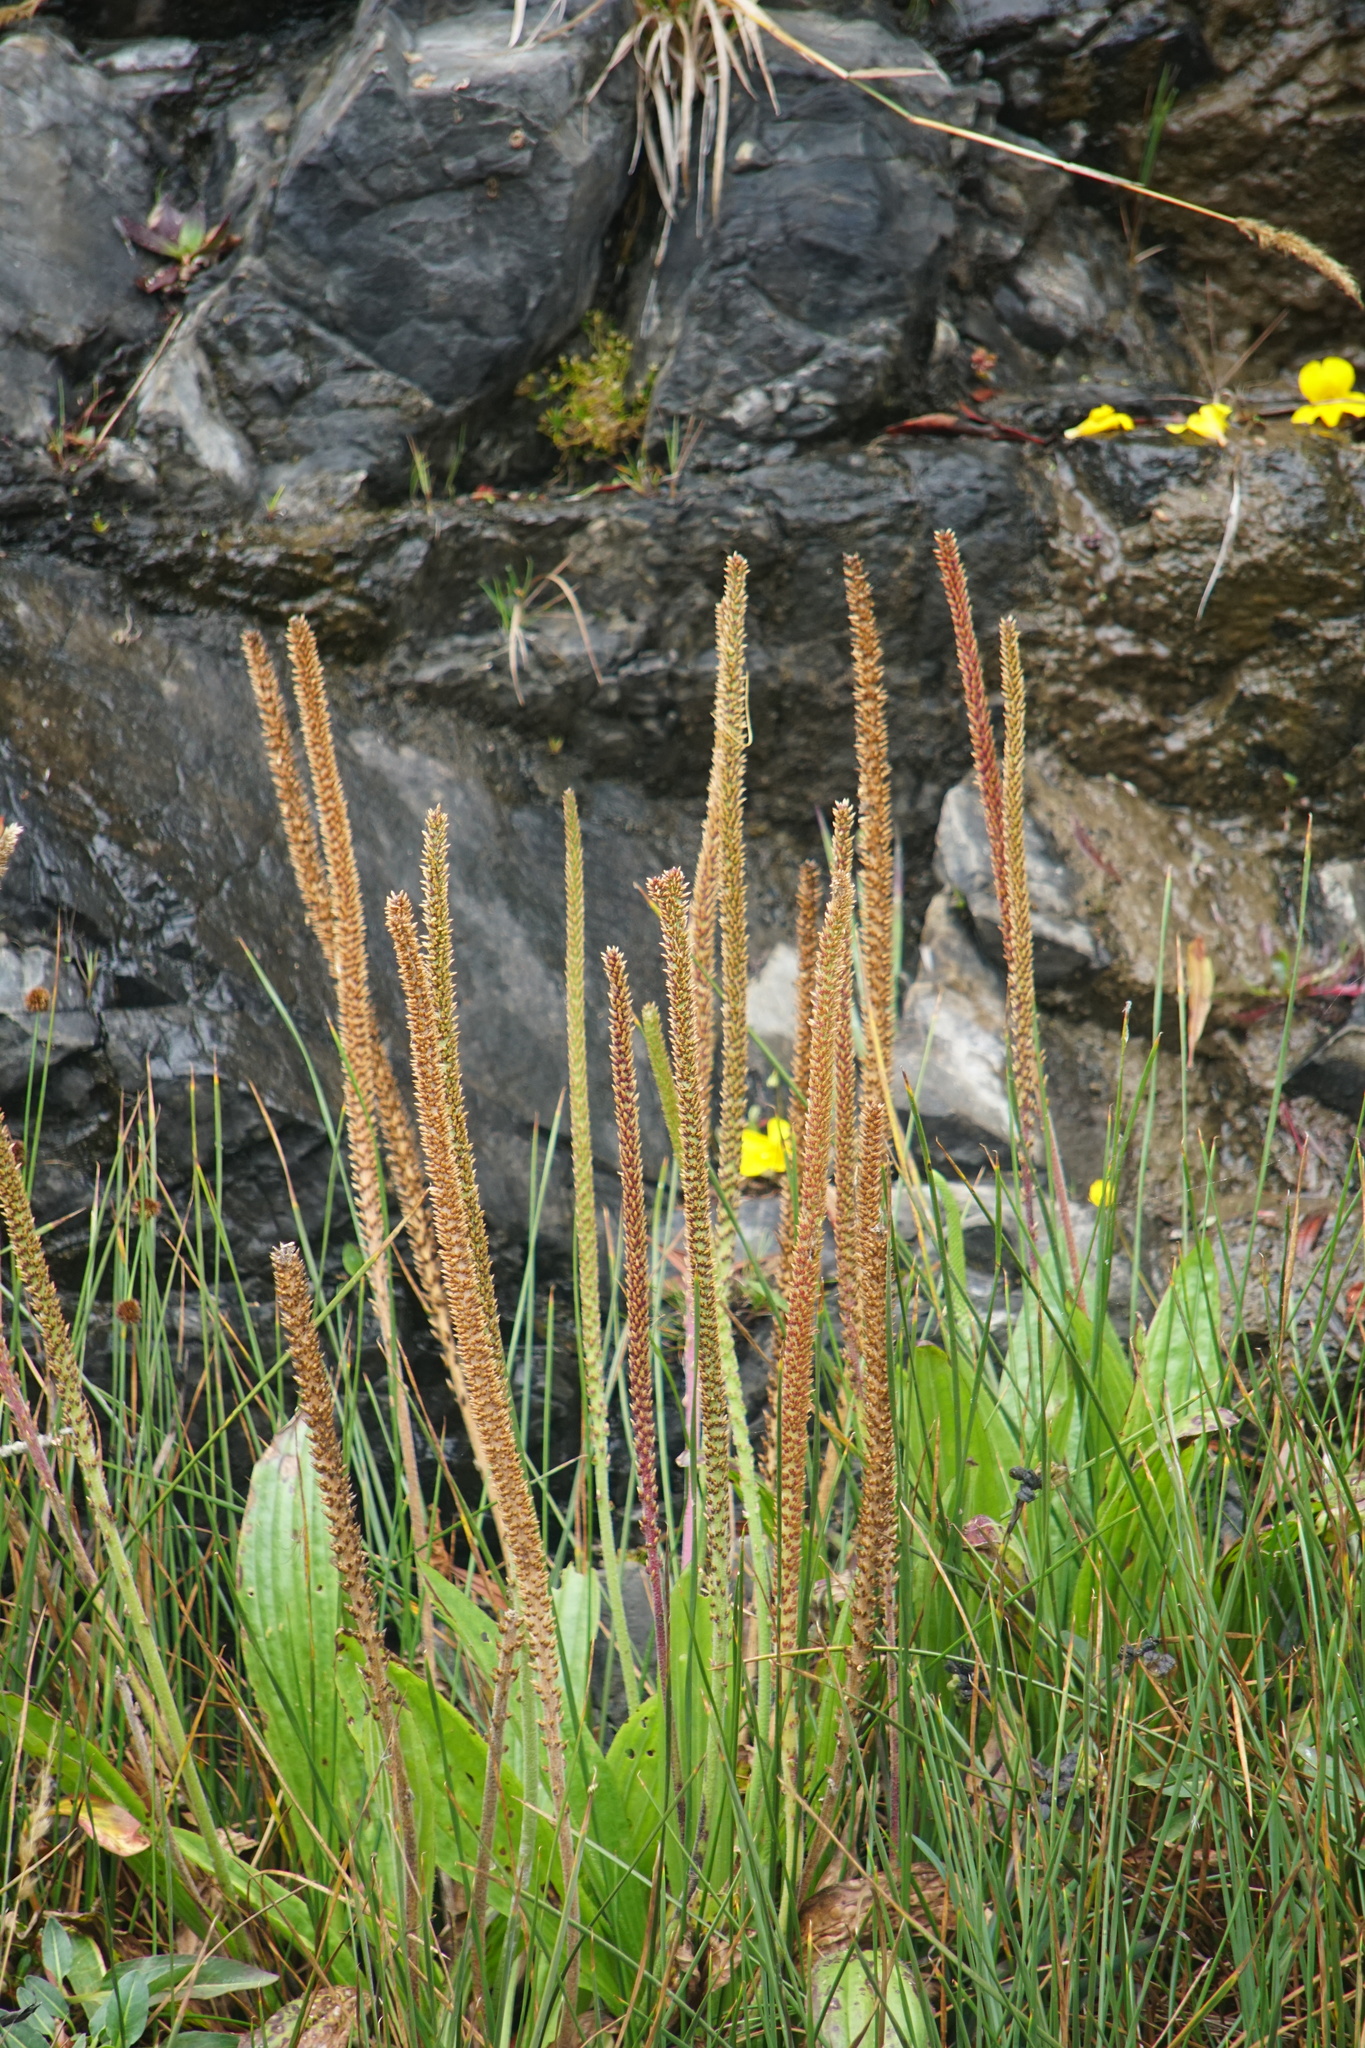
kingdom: Plantae
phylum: Tracheophyta
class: Magnoliopsida
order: Lamiales
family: Plantaginaceae
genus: Plantago
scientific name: Plantago subnuda
